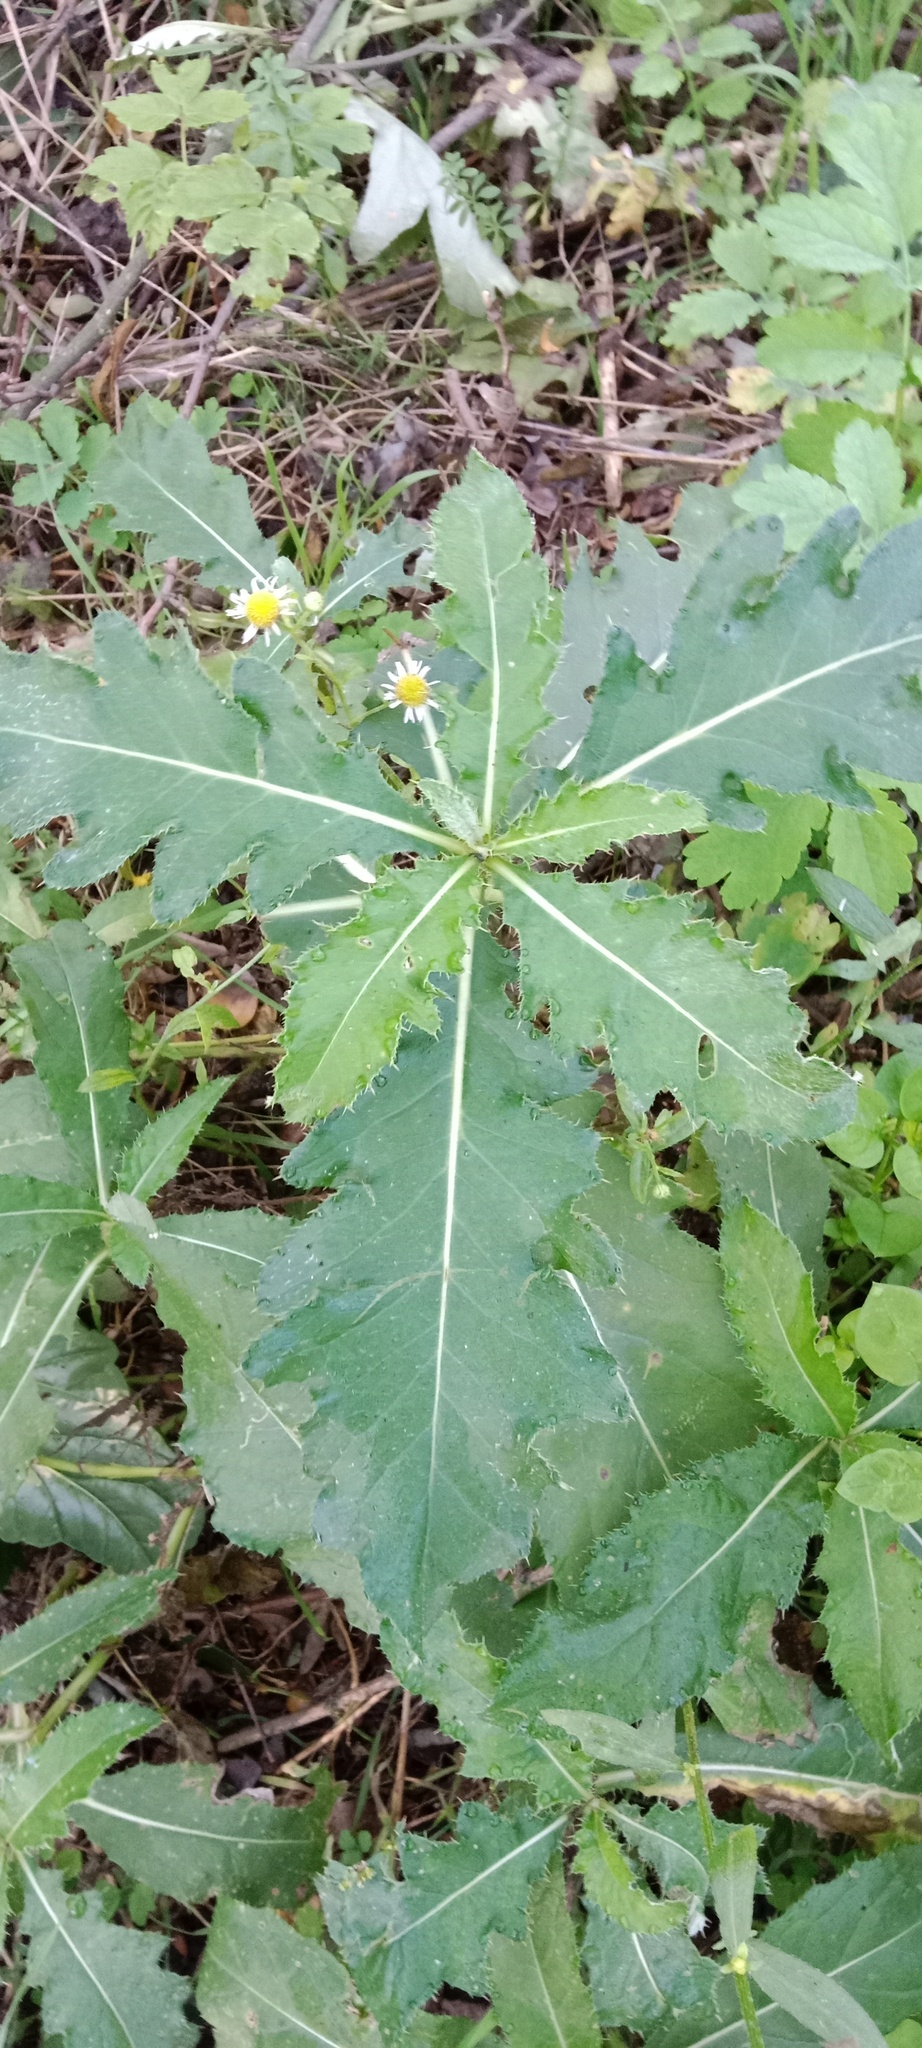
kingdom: Plantae
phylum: Tracheophyta
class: Magnoliopsida
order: Asterales
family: Asteraceae
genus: Cirsium
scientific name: Cirsium arvense
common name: Creeping thistle
